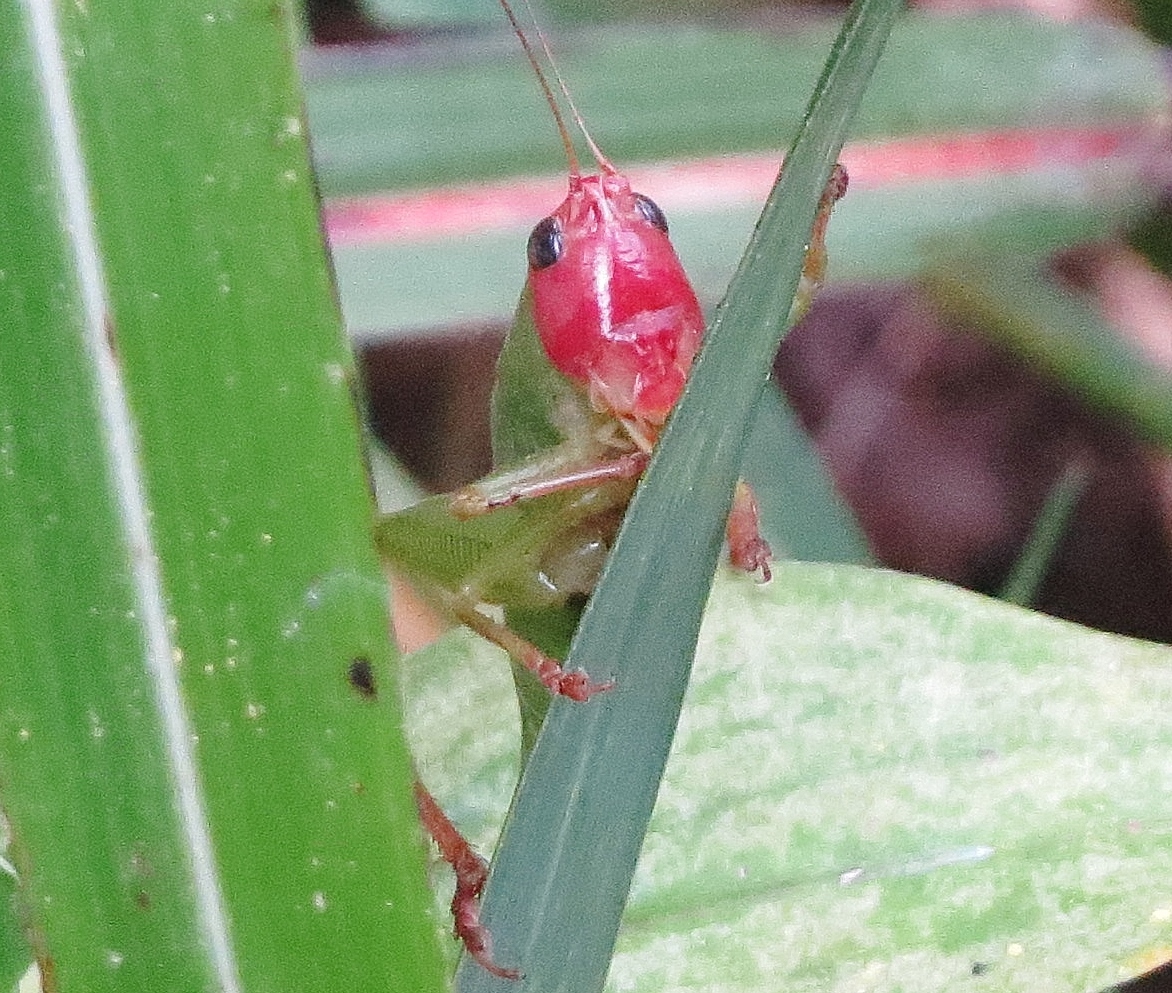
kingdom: Animalia
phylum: Arthropoda
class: Insecta
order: Orthoptera
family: Tettigoniidae
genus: Orchelimum
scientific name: Orchelimum erythrocephalum
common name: Red-headed meadow katydid
